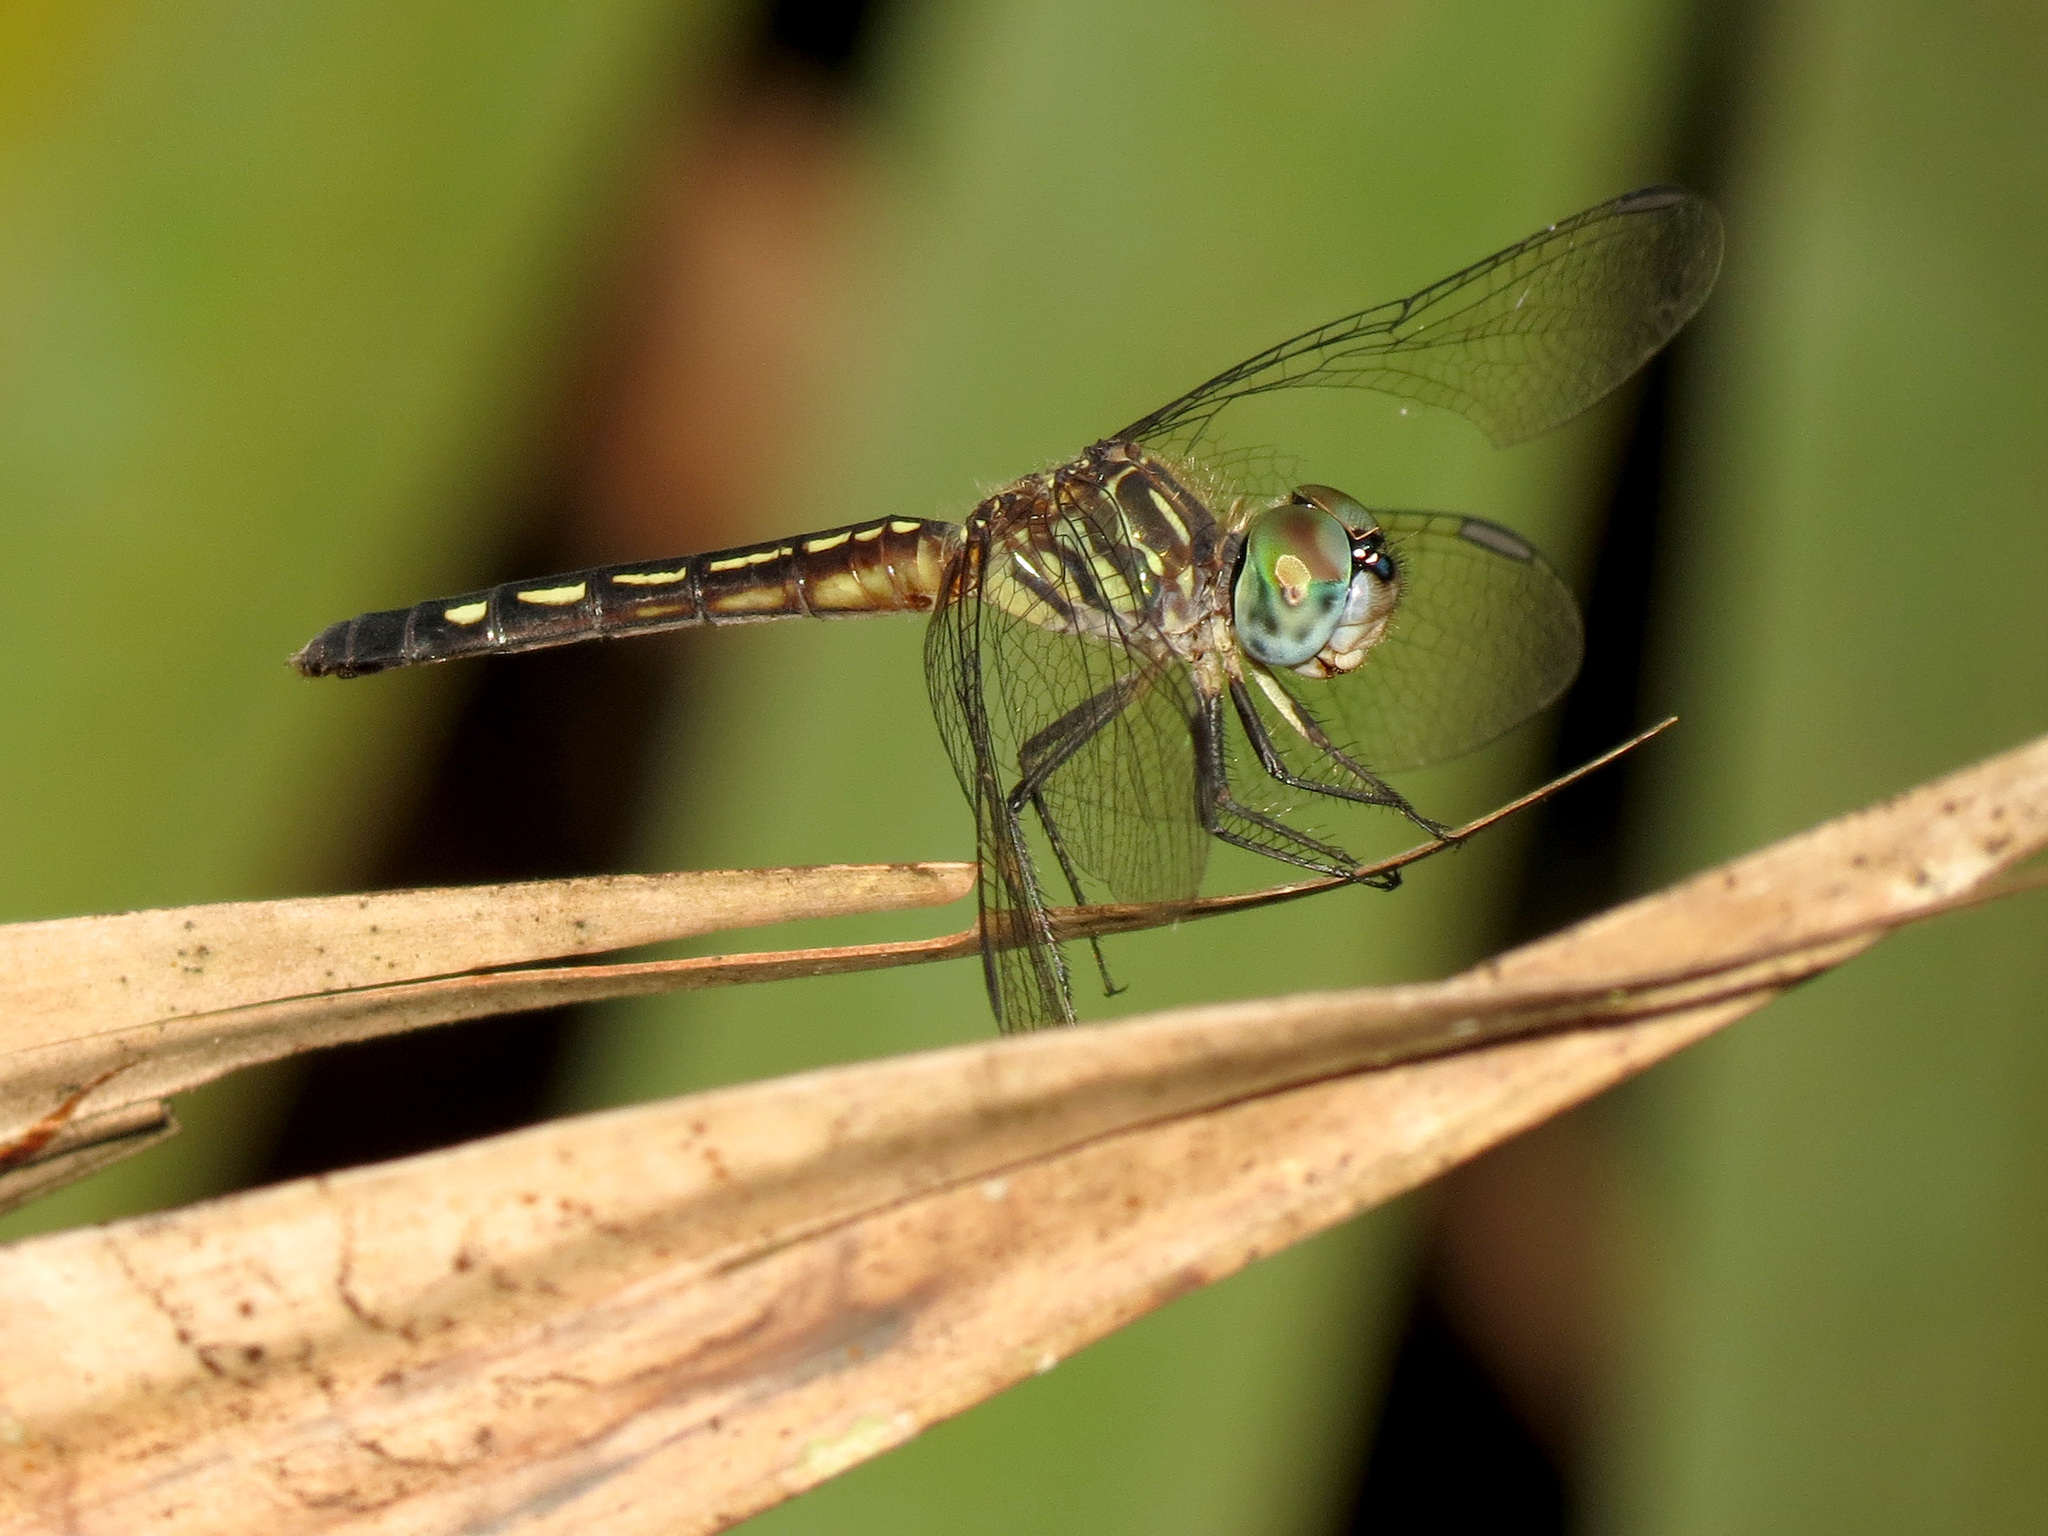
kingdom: Animalia
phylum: Arthropoda
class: Insecta
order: Odonata
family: Libellulidae
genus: Pachydiplax
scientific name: Pachydiplax longipennis
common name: Blue dasher
